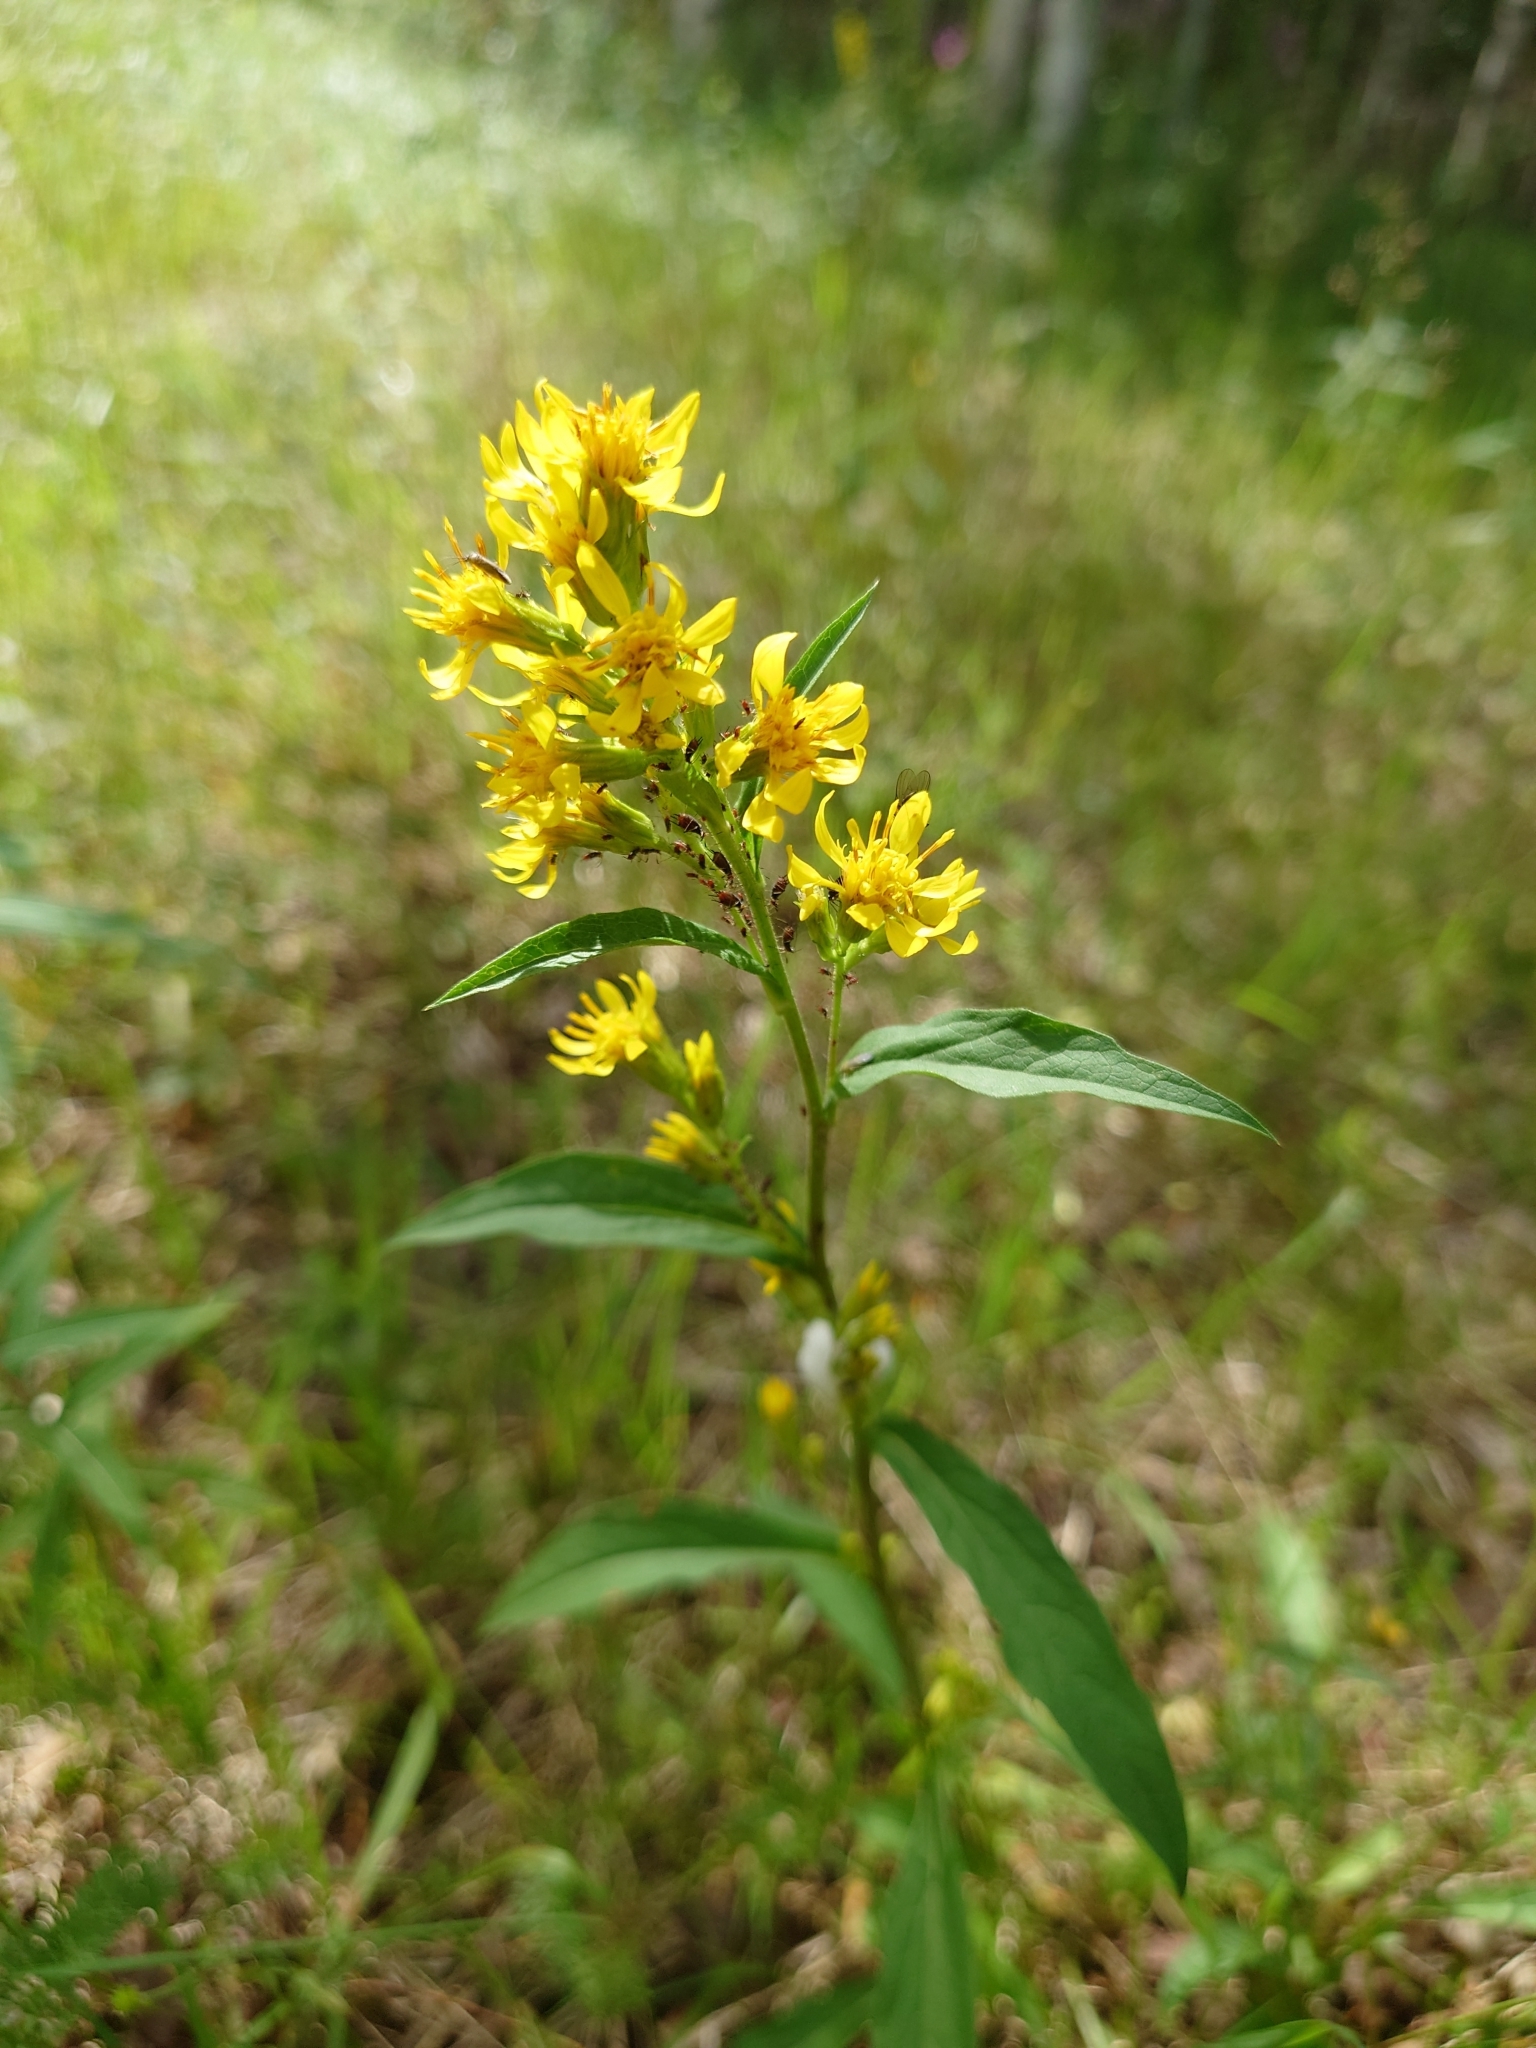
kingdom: Plantae
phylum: Tracheophyta
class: Magnoliopsida
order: Asterales
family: Asteraceae
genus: Solidago
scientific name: Solidago virgaurea
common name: Goldenrod
